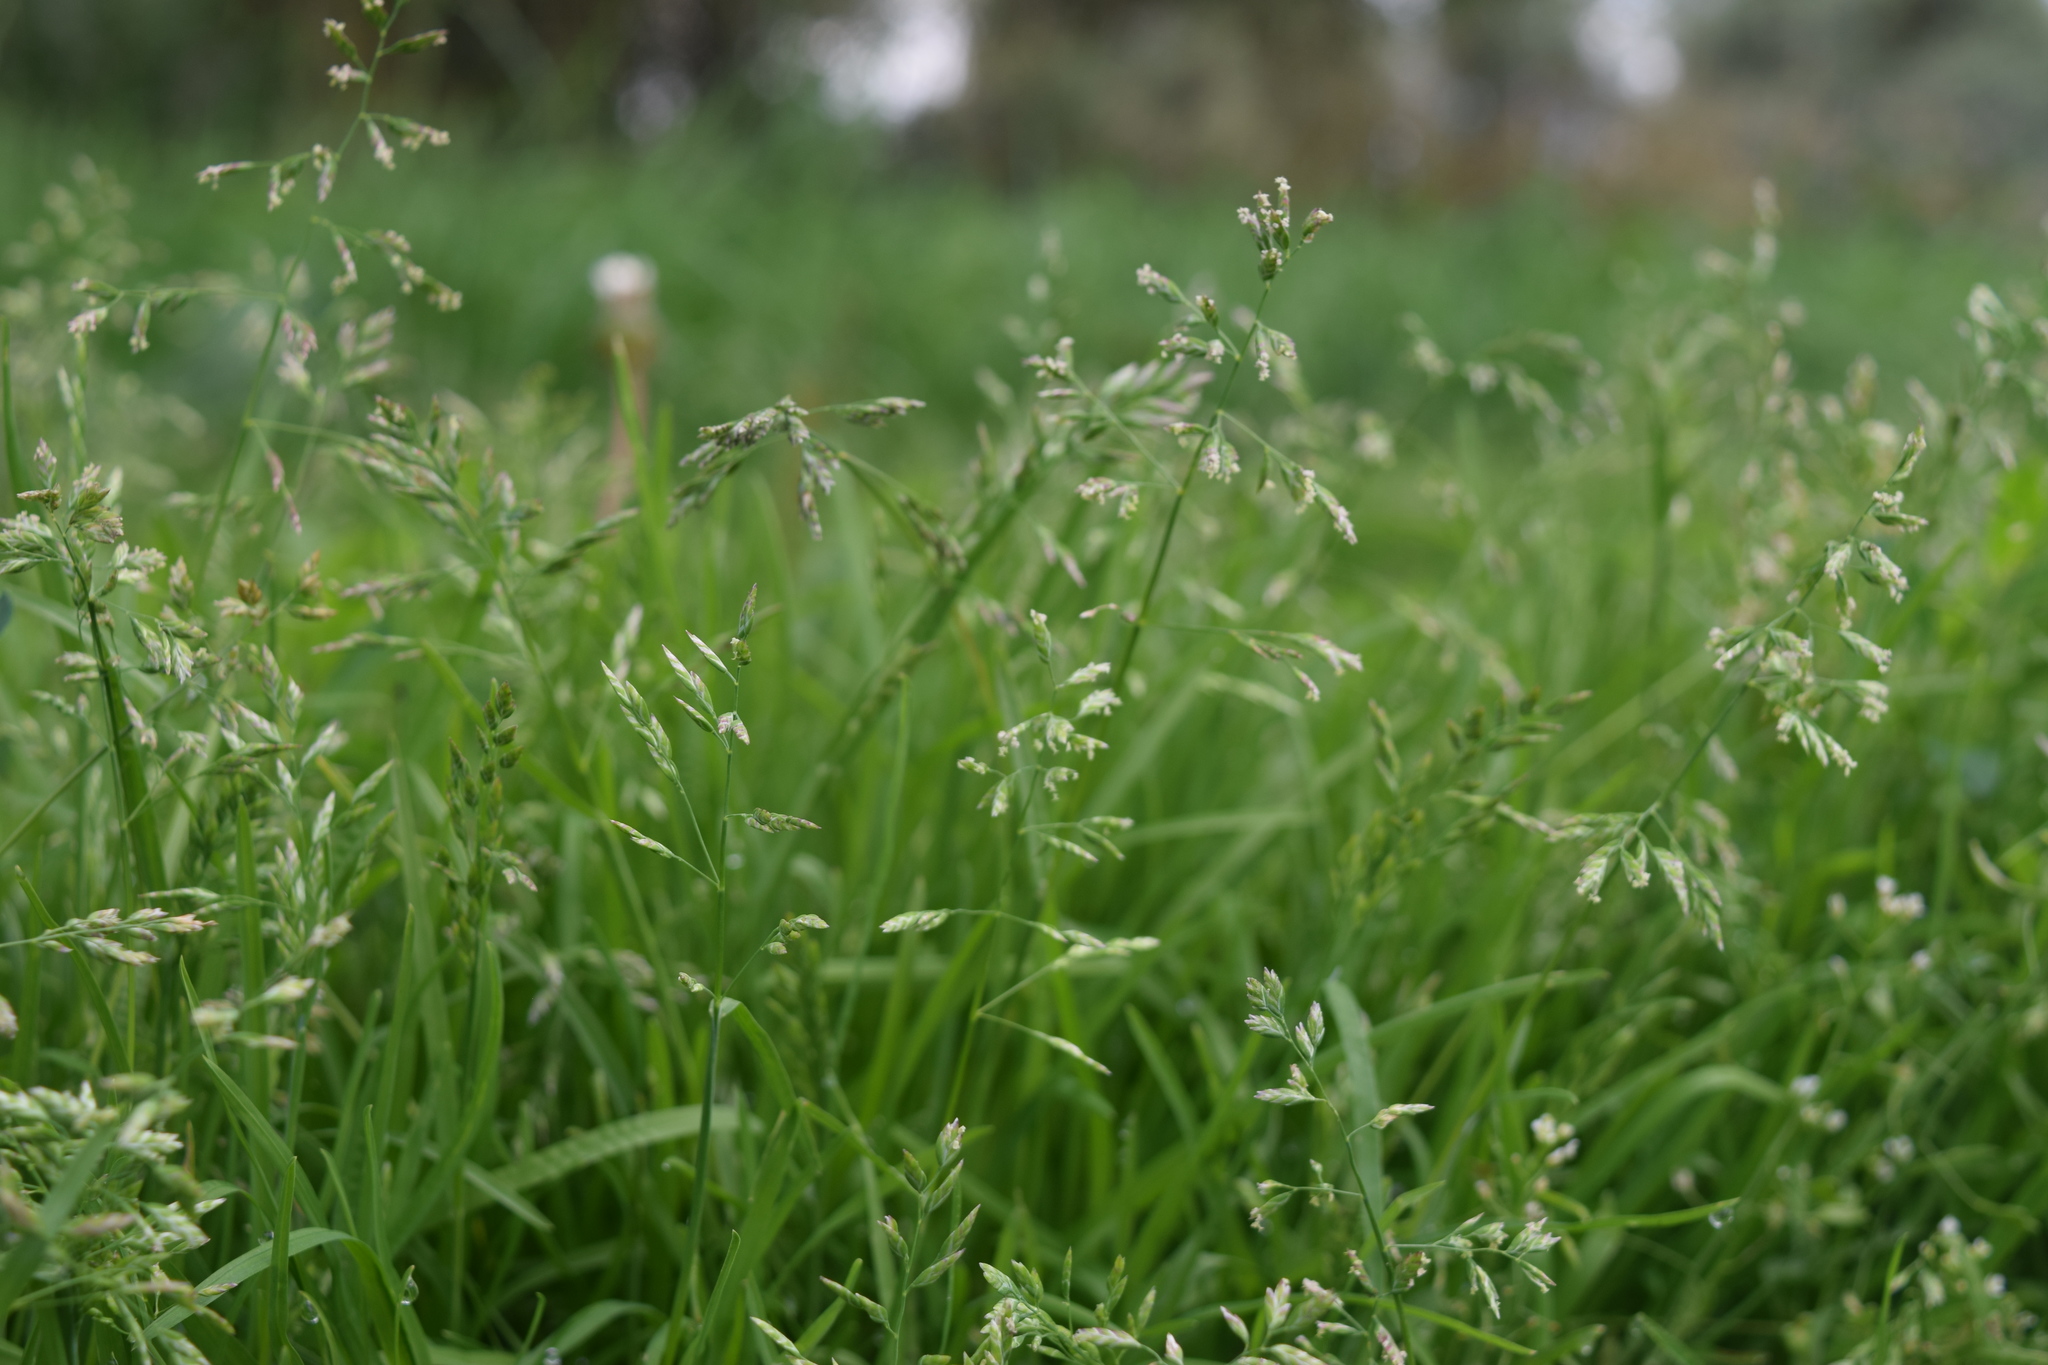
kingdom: Plantae
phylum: Tracheophyta
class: Liliopsida
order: Poales
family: Poaceae
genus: Poa
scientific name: Poa annua
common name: Annual bluegrass
